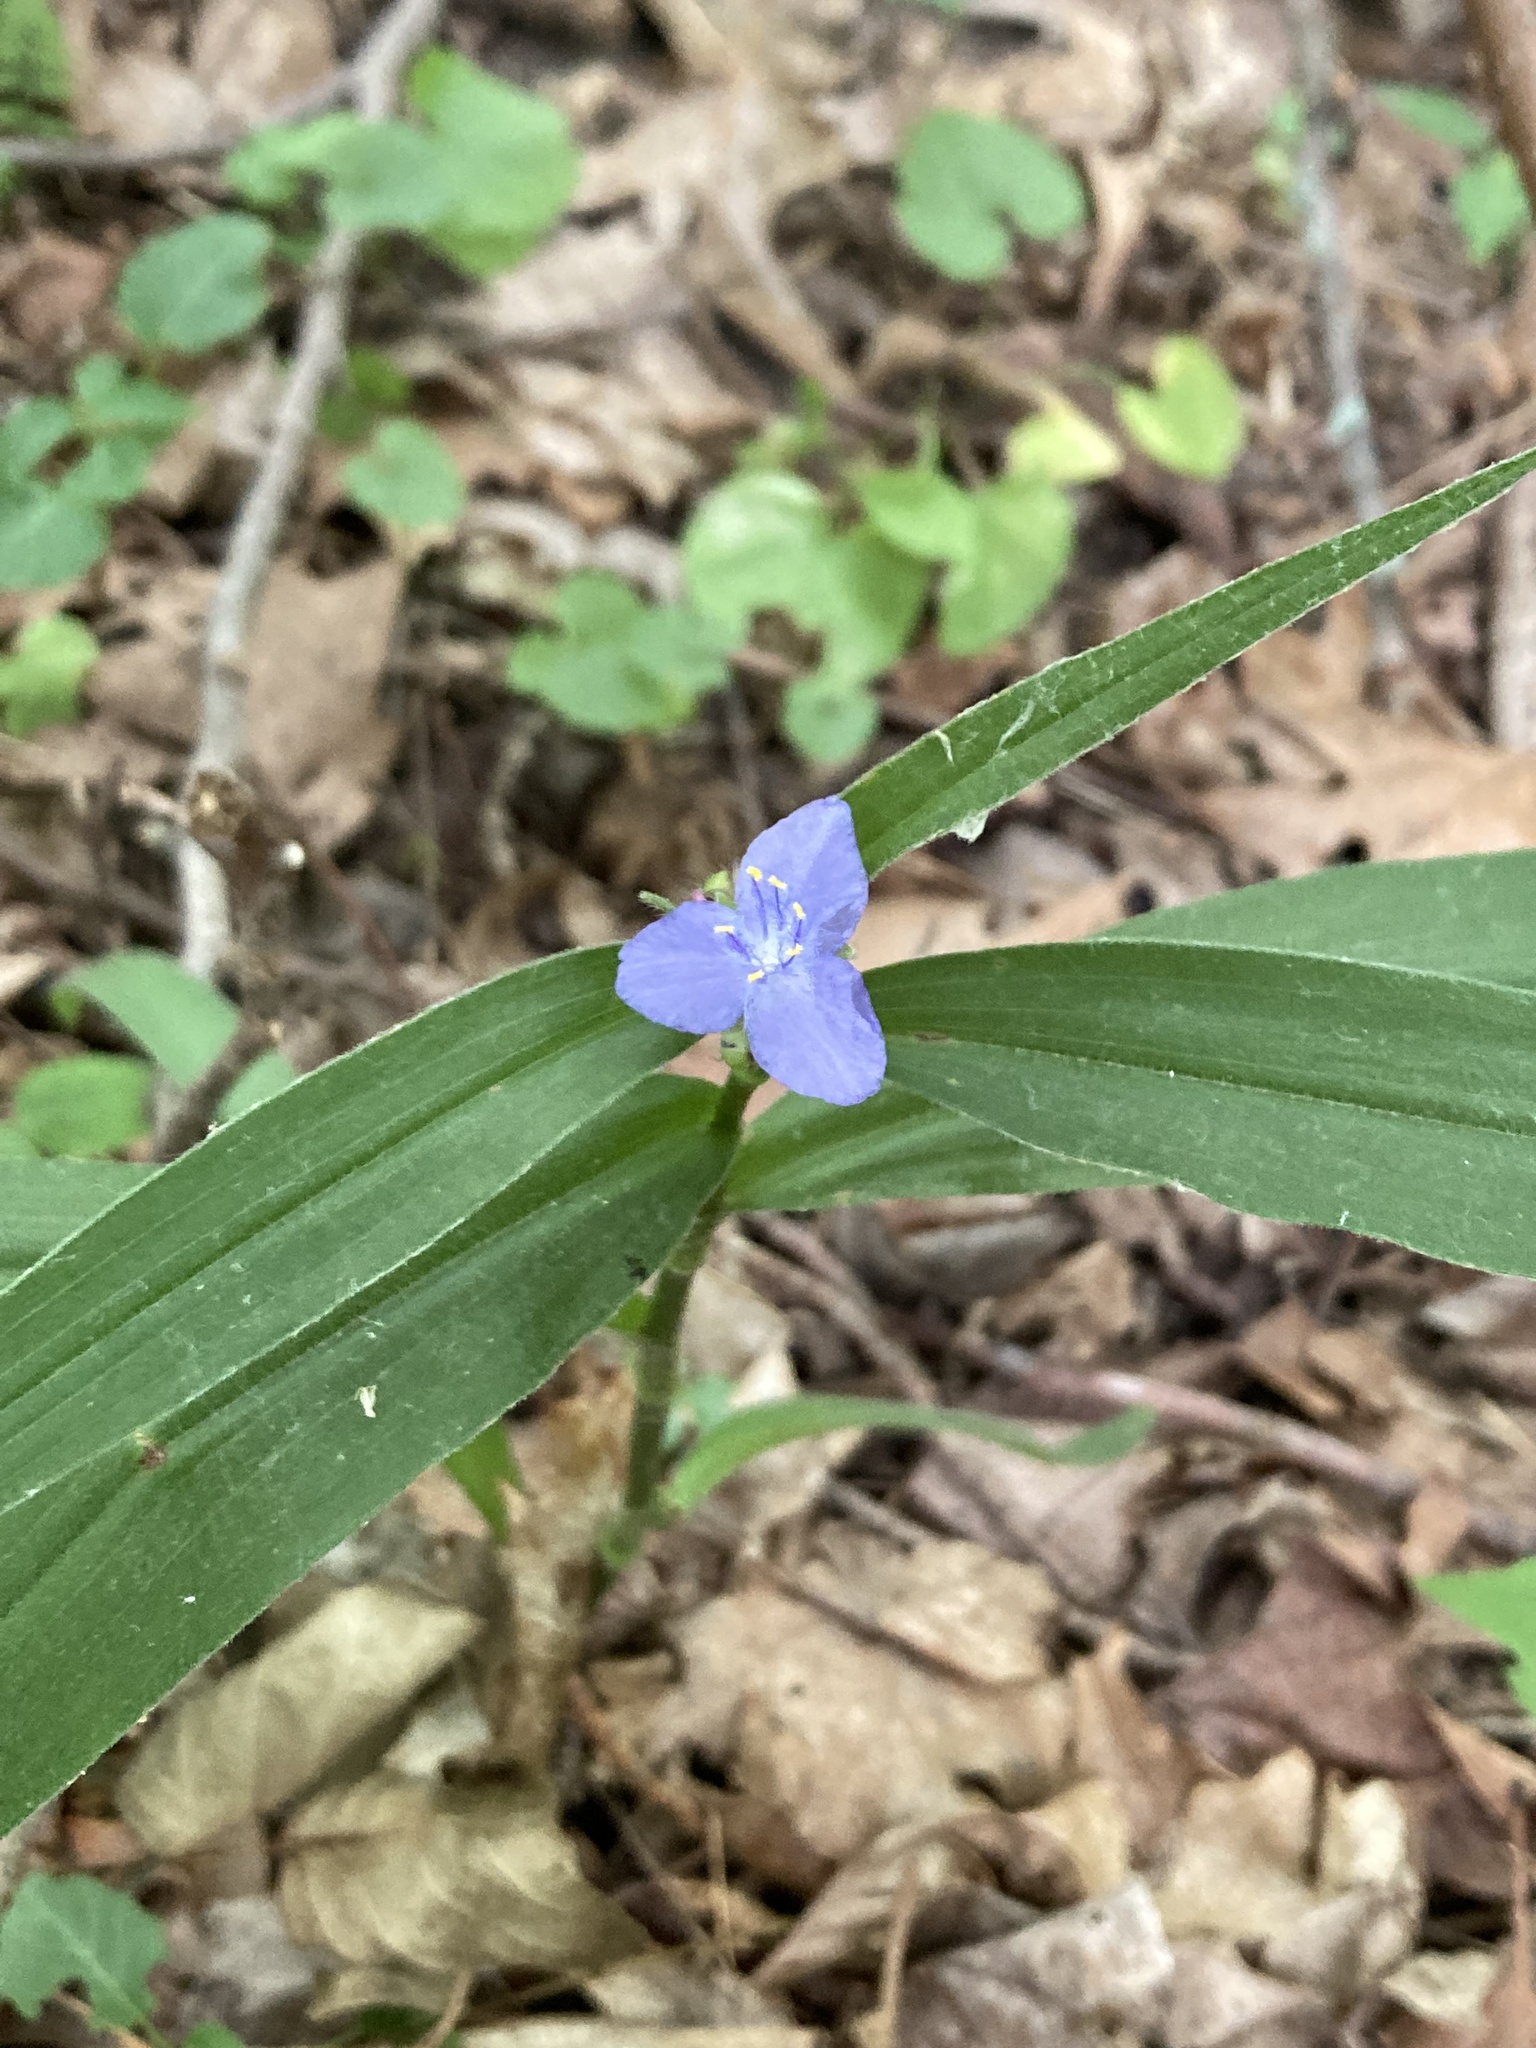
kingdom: Plantae
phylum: Tracheophyta
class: Liliopsida
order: Commelinales
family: Commelinaceae
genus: Tradescantia
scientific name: Tradescantia subaspera
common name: Wide-leaf spiderwort
